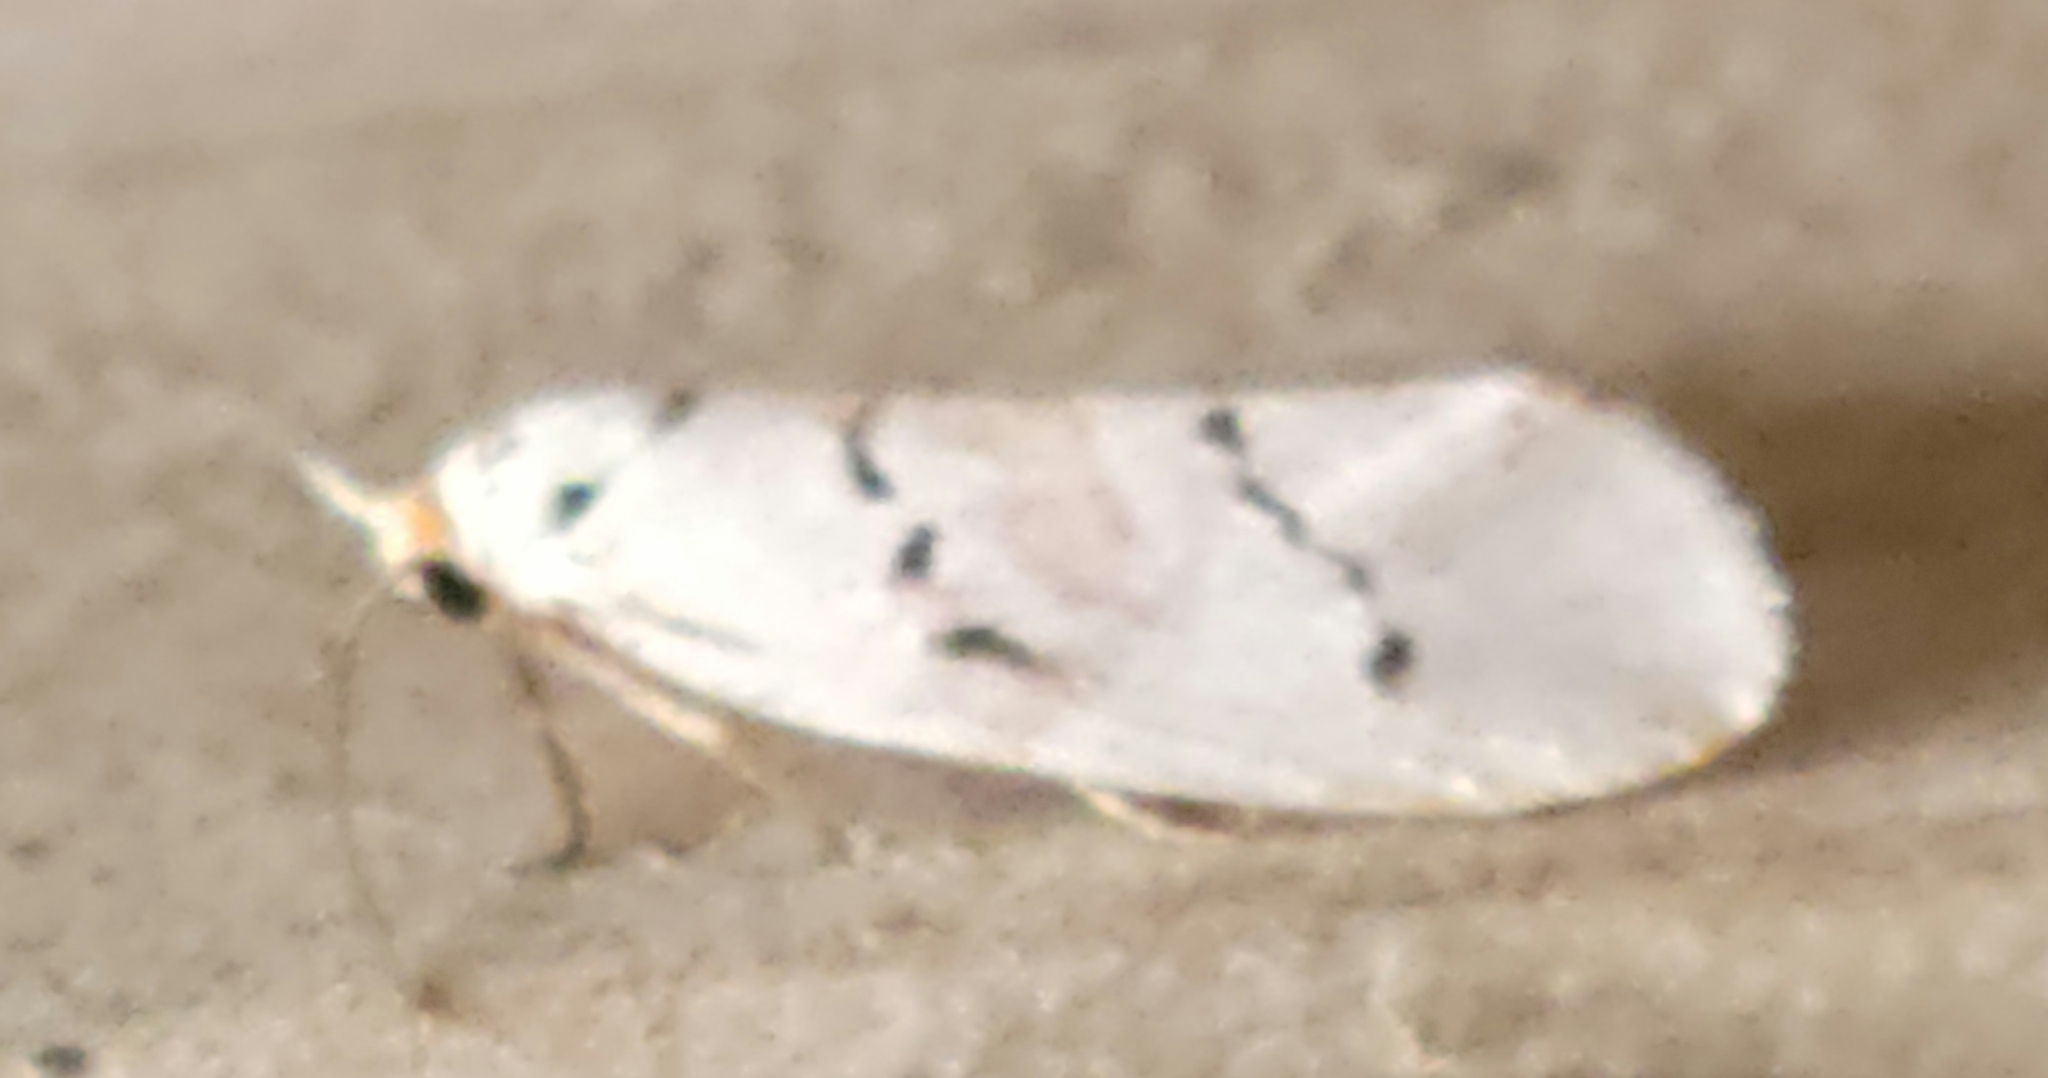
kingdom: Animalia
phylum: Arthropoda
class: Insecta
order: Lepidoptera
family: Lacturidae
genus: Lactura
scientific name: Lactura
